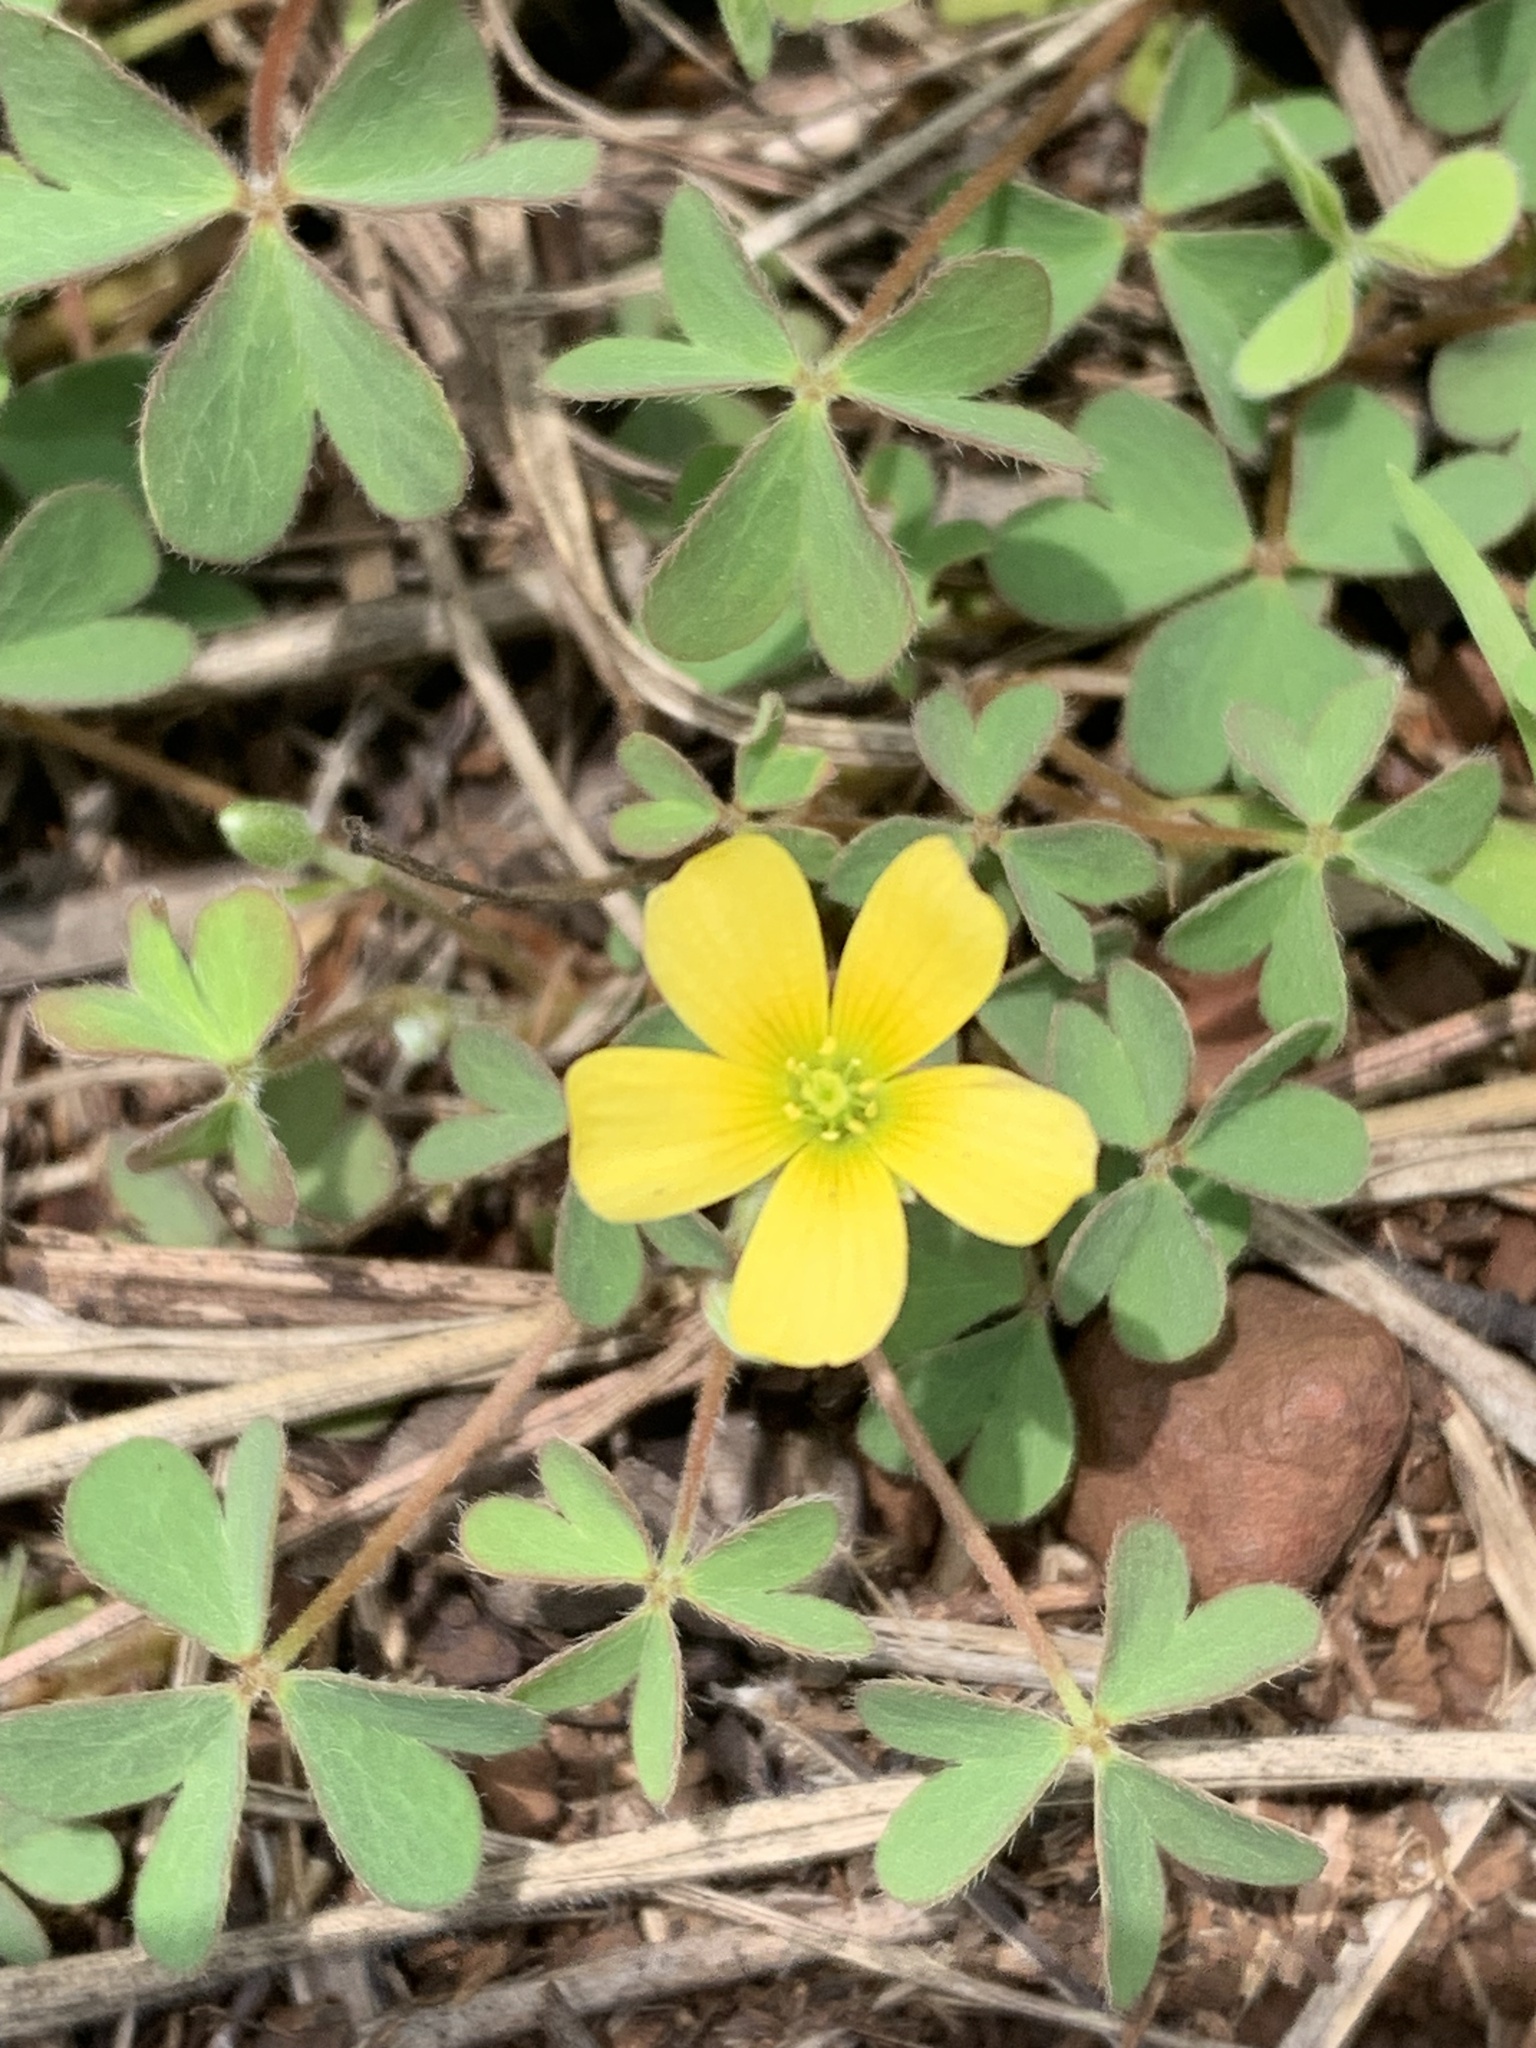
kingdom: Plantae
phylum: Tracheophyta
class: Magnoliopsida
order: Oxalidales
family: Oxalidaceae
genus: Oxalis
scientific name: Oxalis corniculata
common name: Procumbent yellow-sorrel
